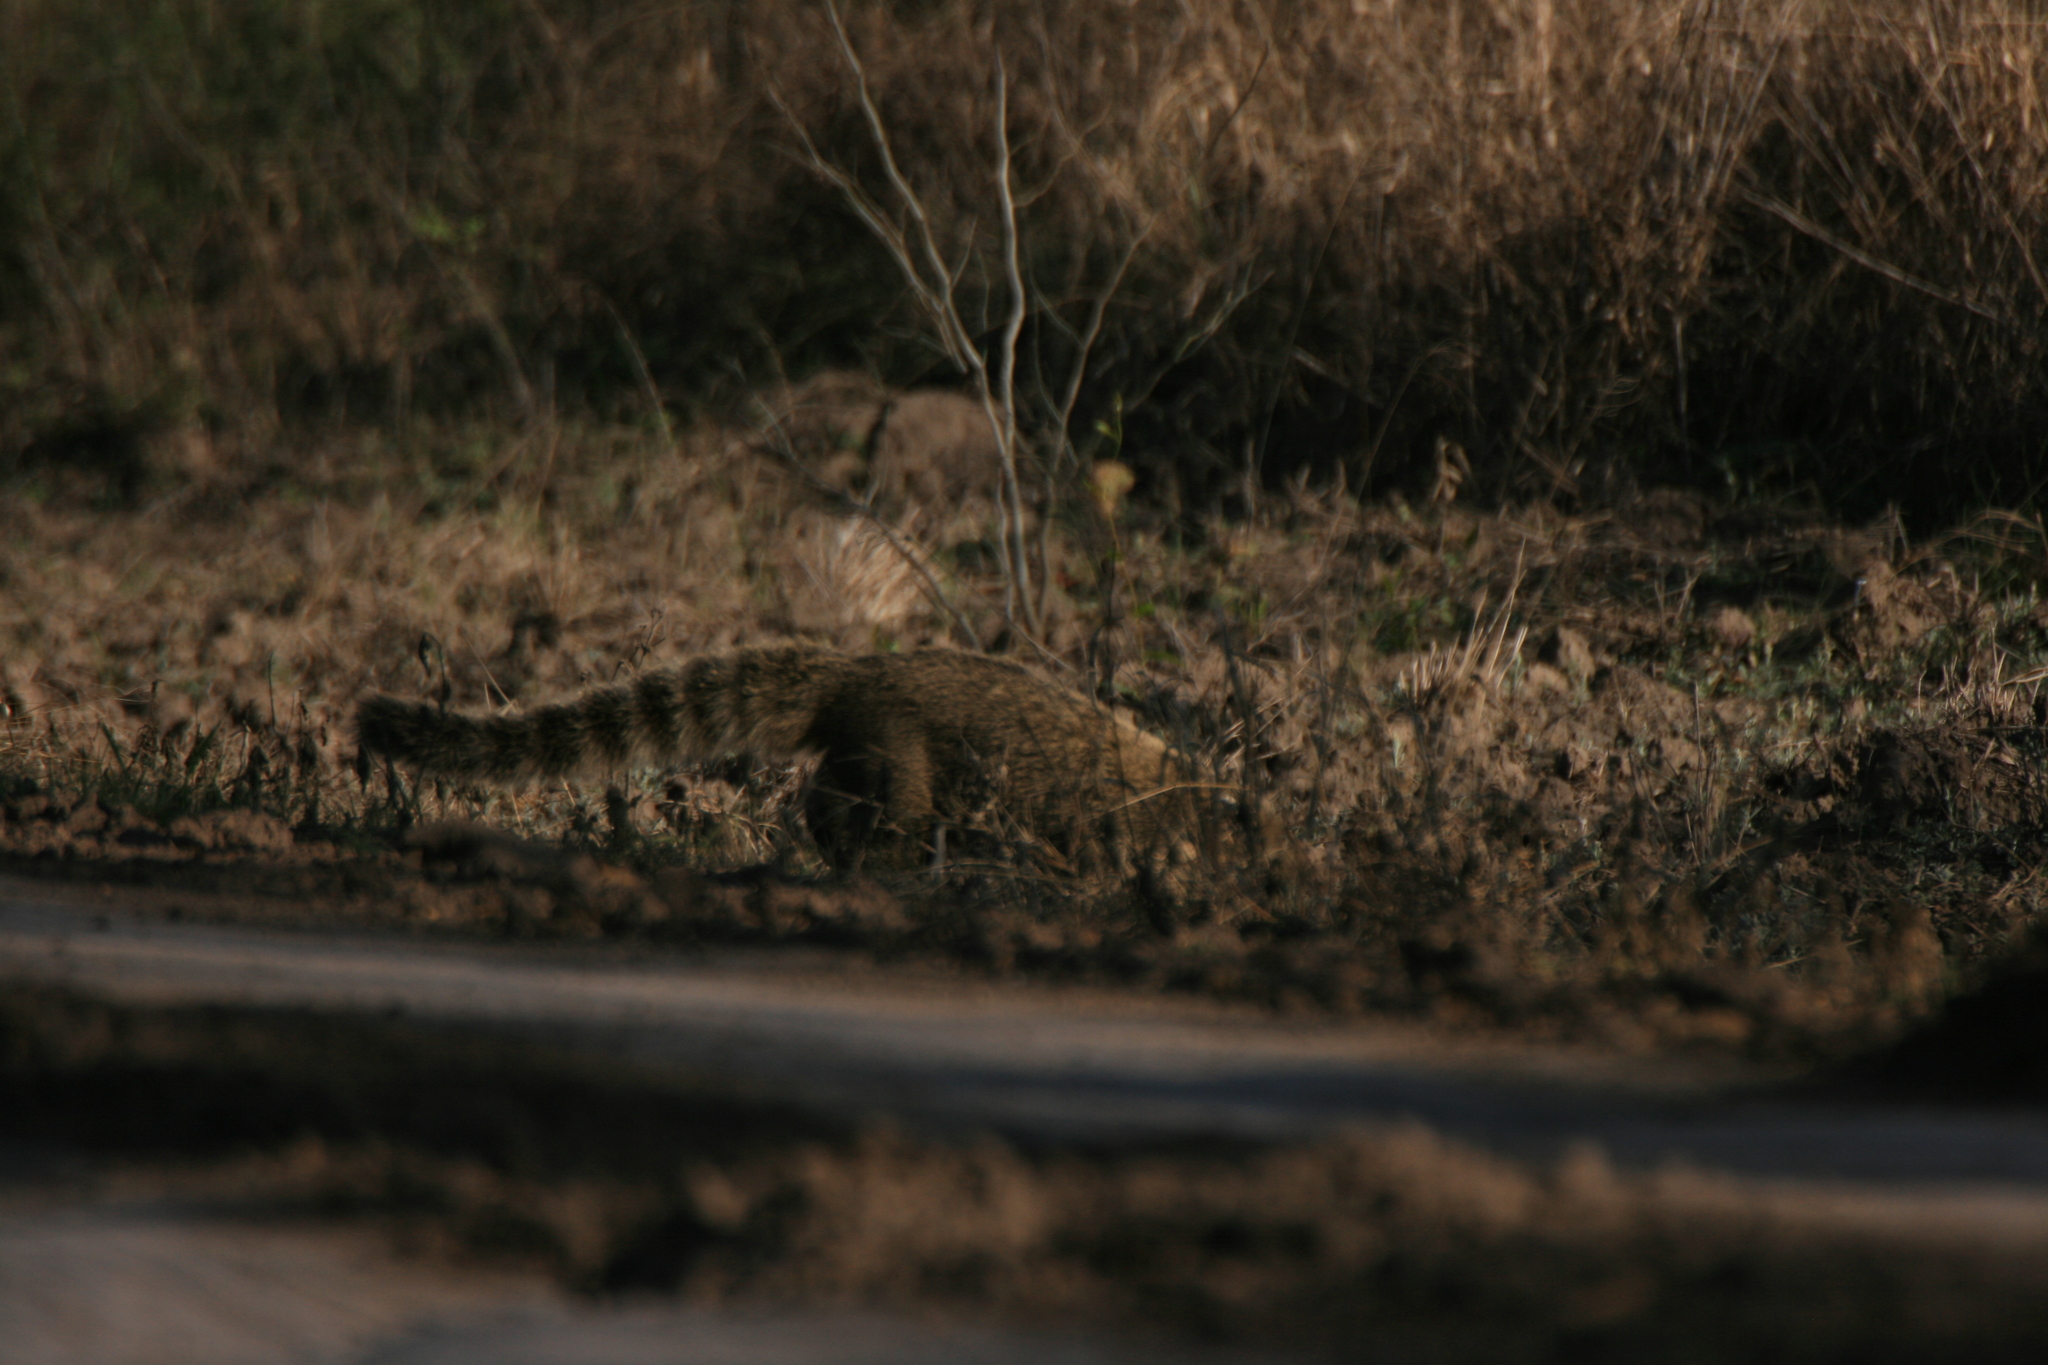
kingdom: Animalia
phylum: Chordata
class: Mammalia
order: Carnivora
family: Procyonidae
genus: Nasua
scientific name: Nasua nasua
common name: South american coati
